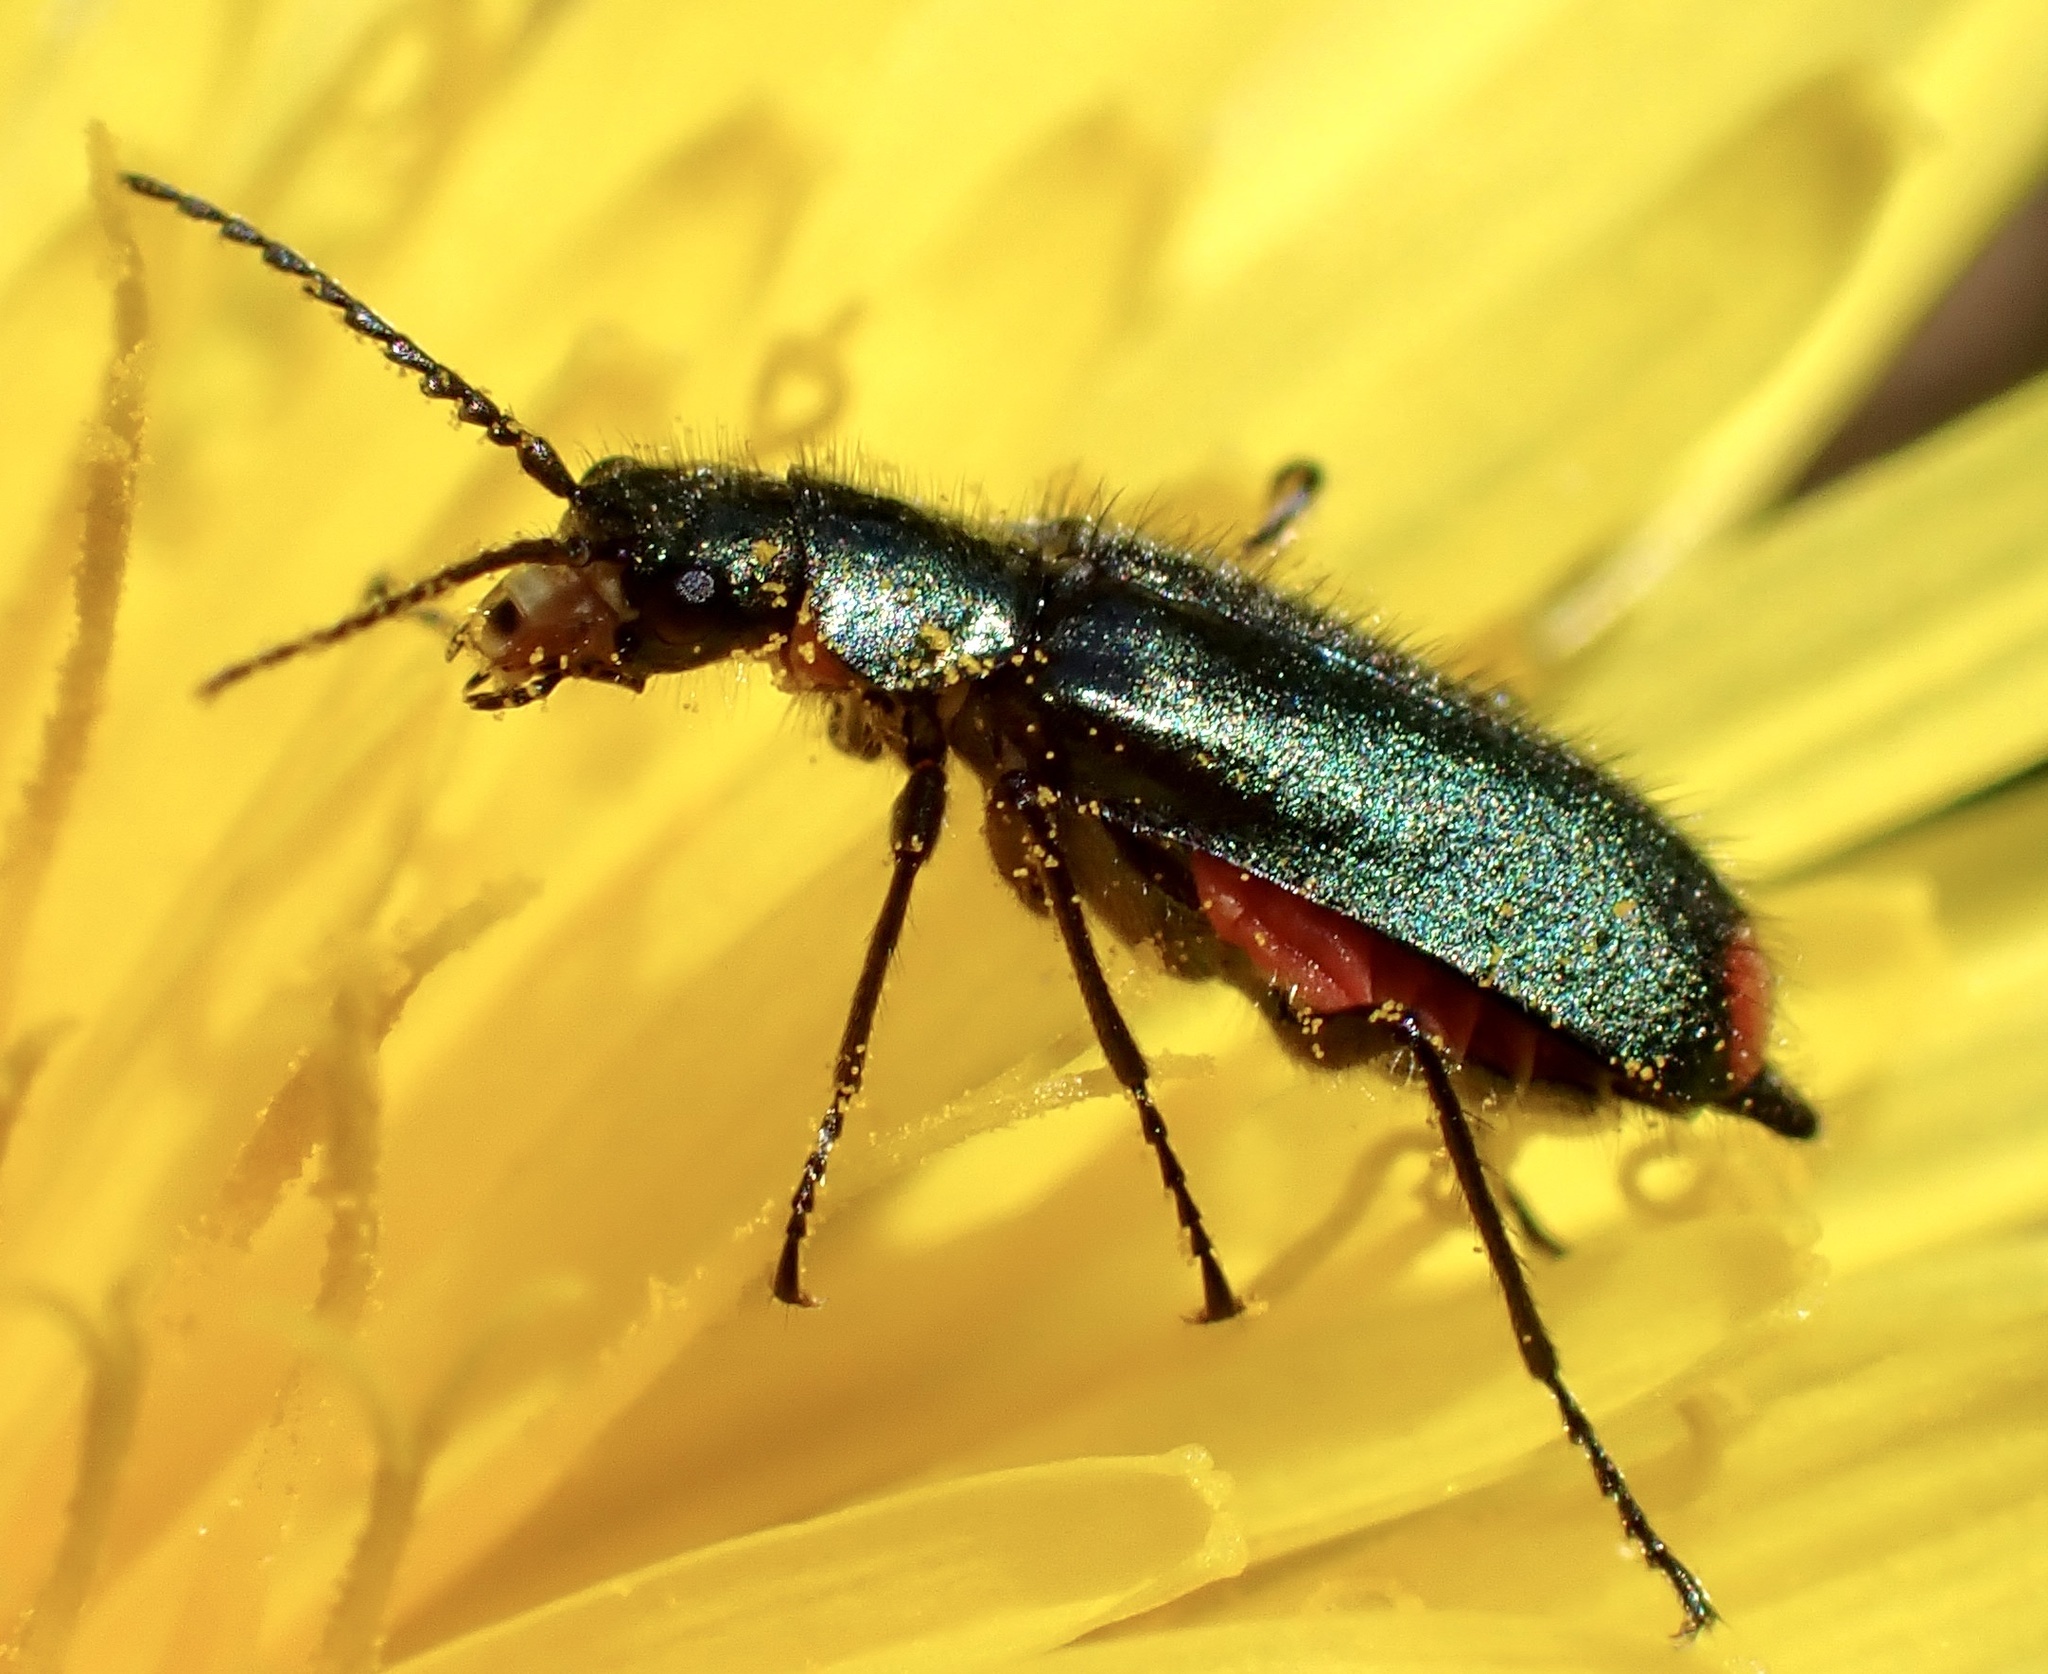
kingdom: Animalia
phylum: Arthropoda
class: Insecta
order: Coleoptera
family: Melyridae
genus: Malachius
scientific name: Malachius bipustulatus
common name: Malachite beetle
